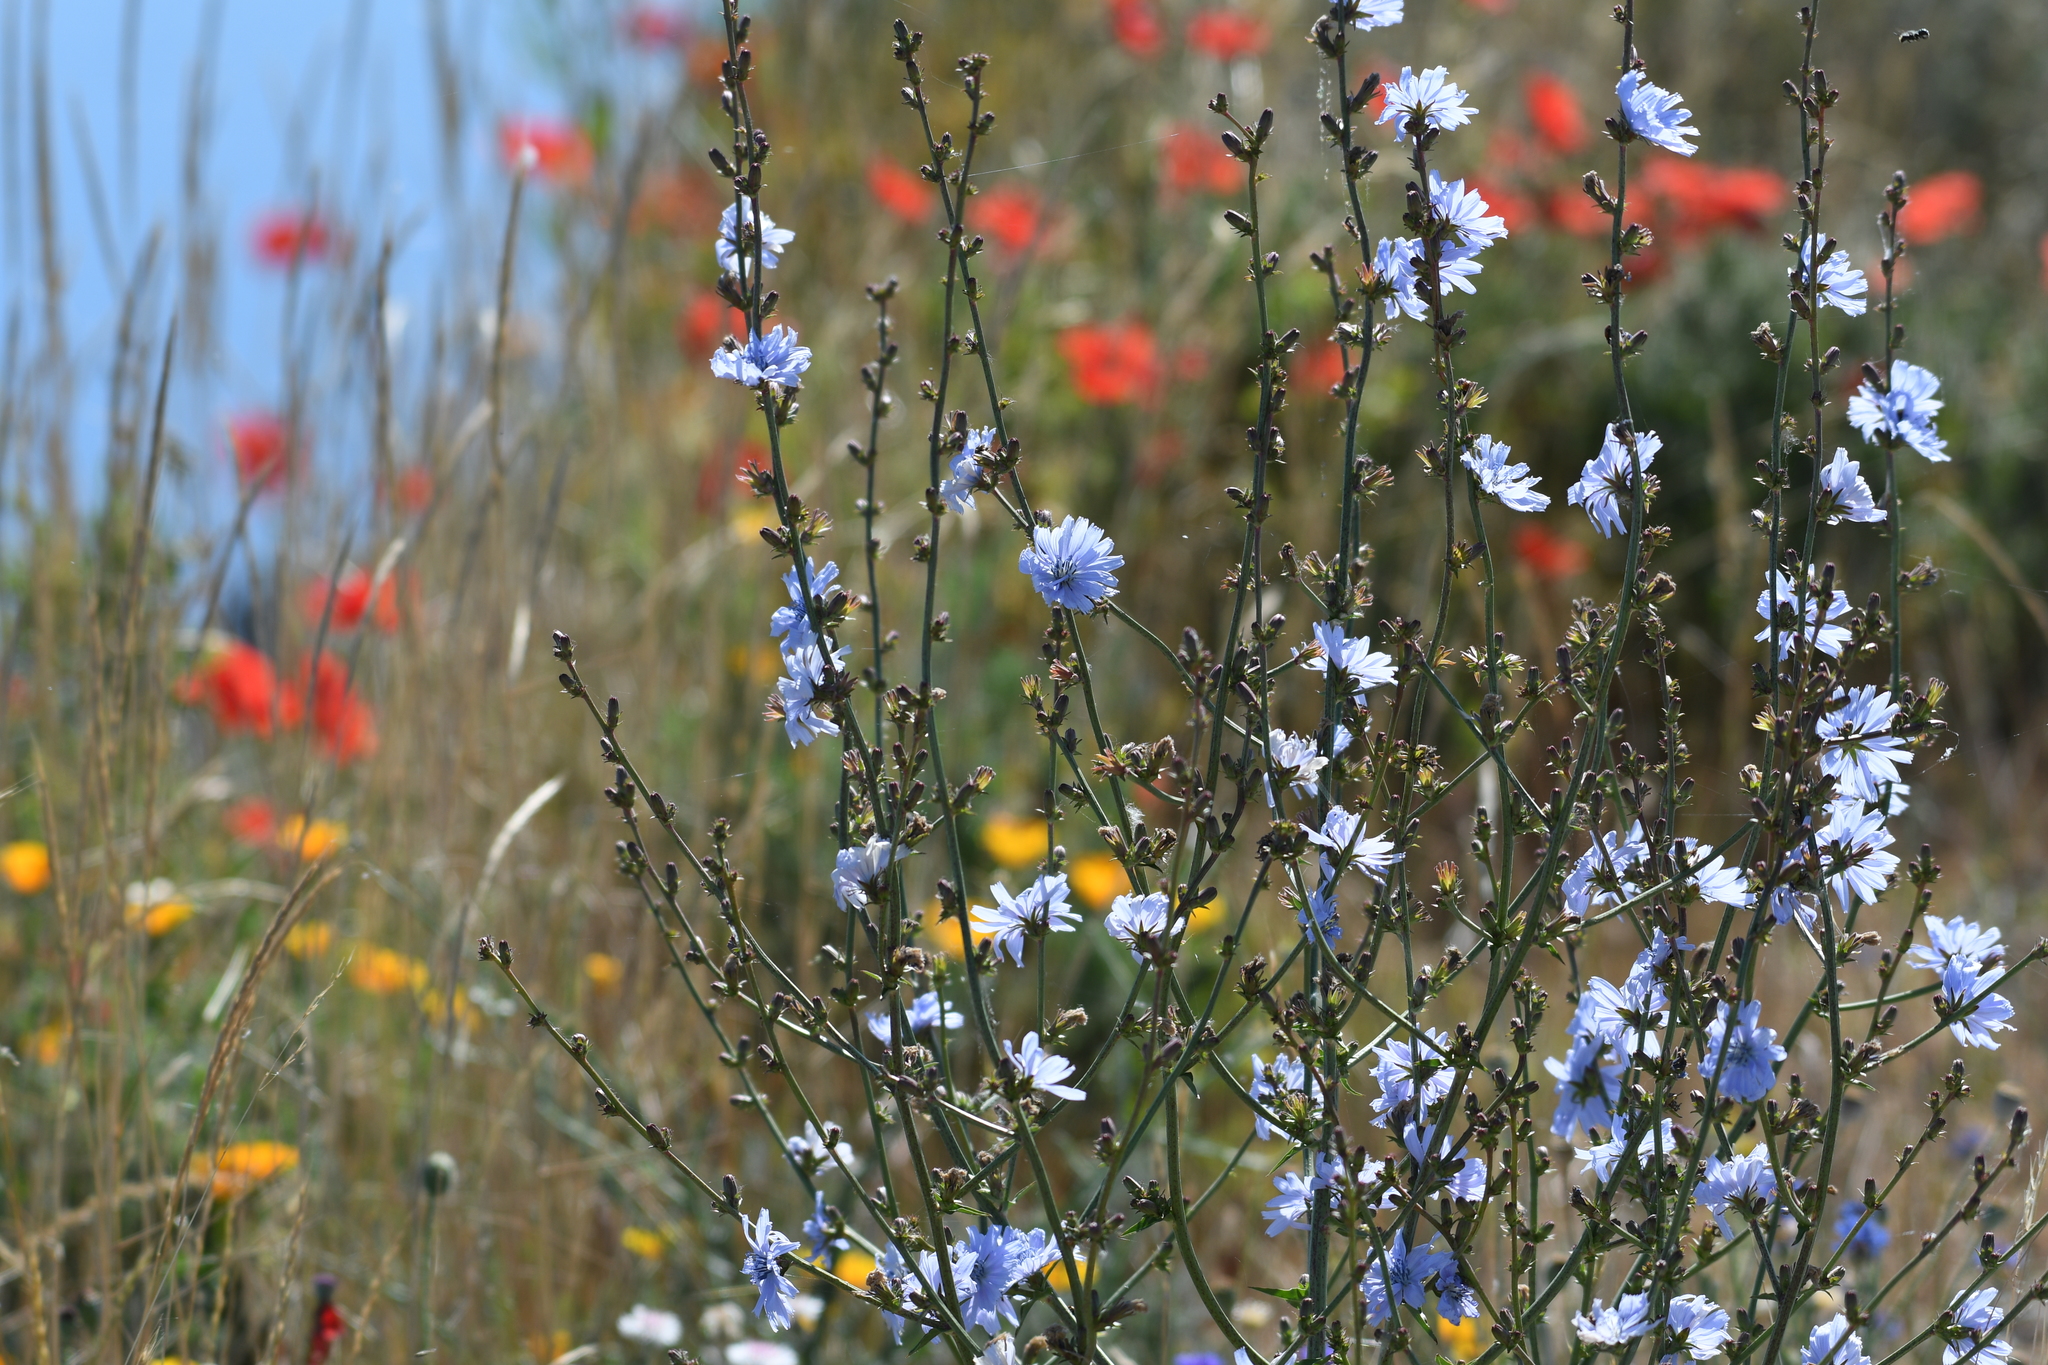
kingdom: Plantae
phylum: Tracheophyta
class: Magnoliopsida
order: Asterales
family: Asteraceae
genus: Cichorium
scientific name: Cichorium intybus
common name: Chicory
